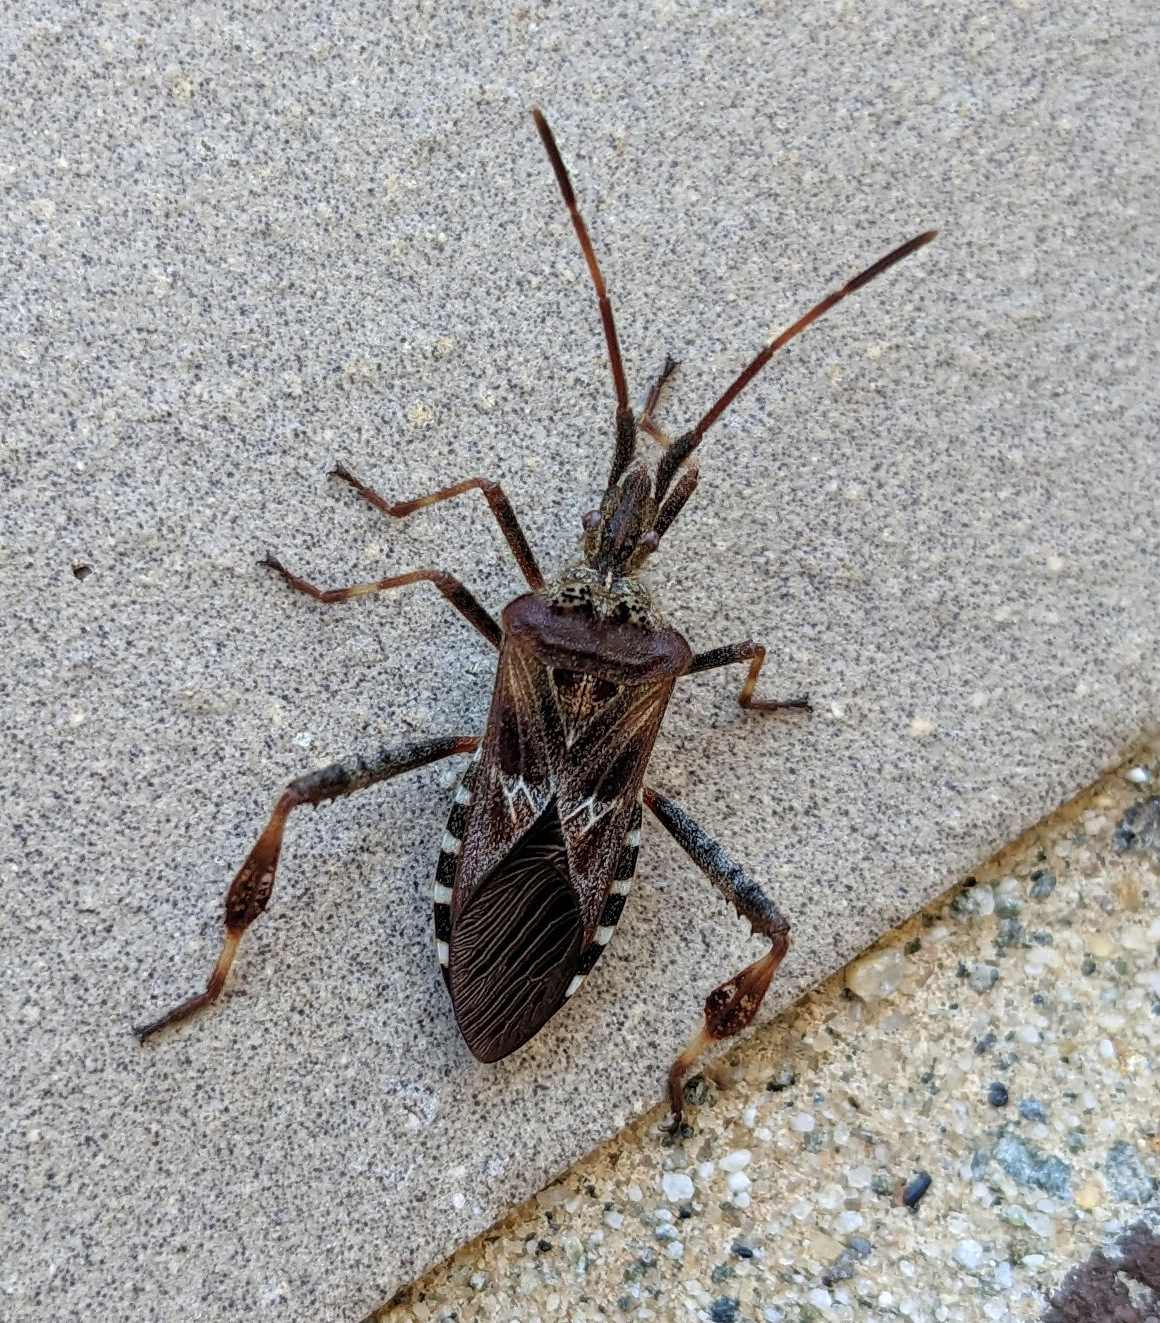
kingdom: Animalia
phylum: Arthropoda
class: Insecta
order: Hemiptera
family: Coreidae
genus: Leptoglossus
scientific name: Leptoglossus occidentalis
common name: Western conifer-seed bug
